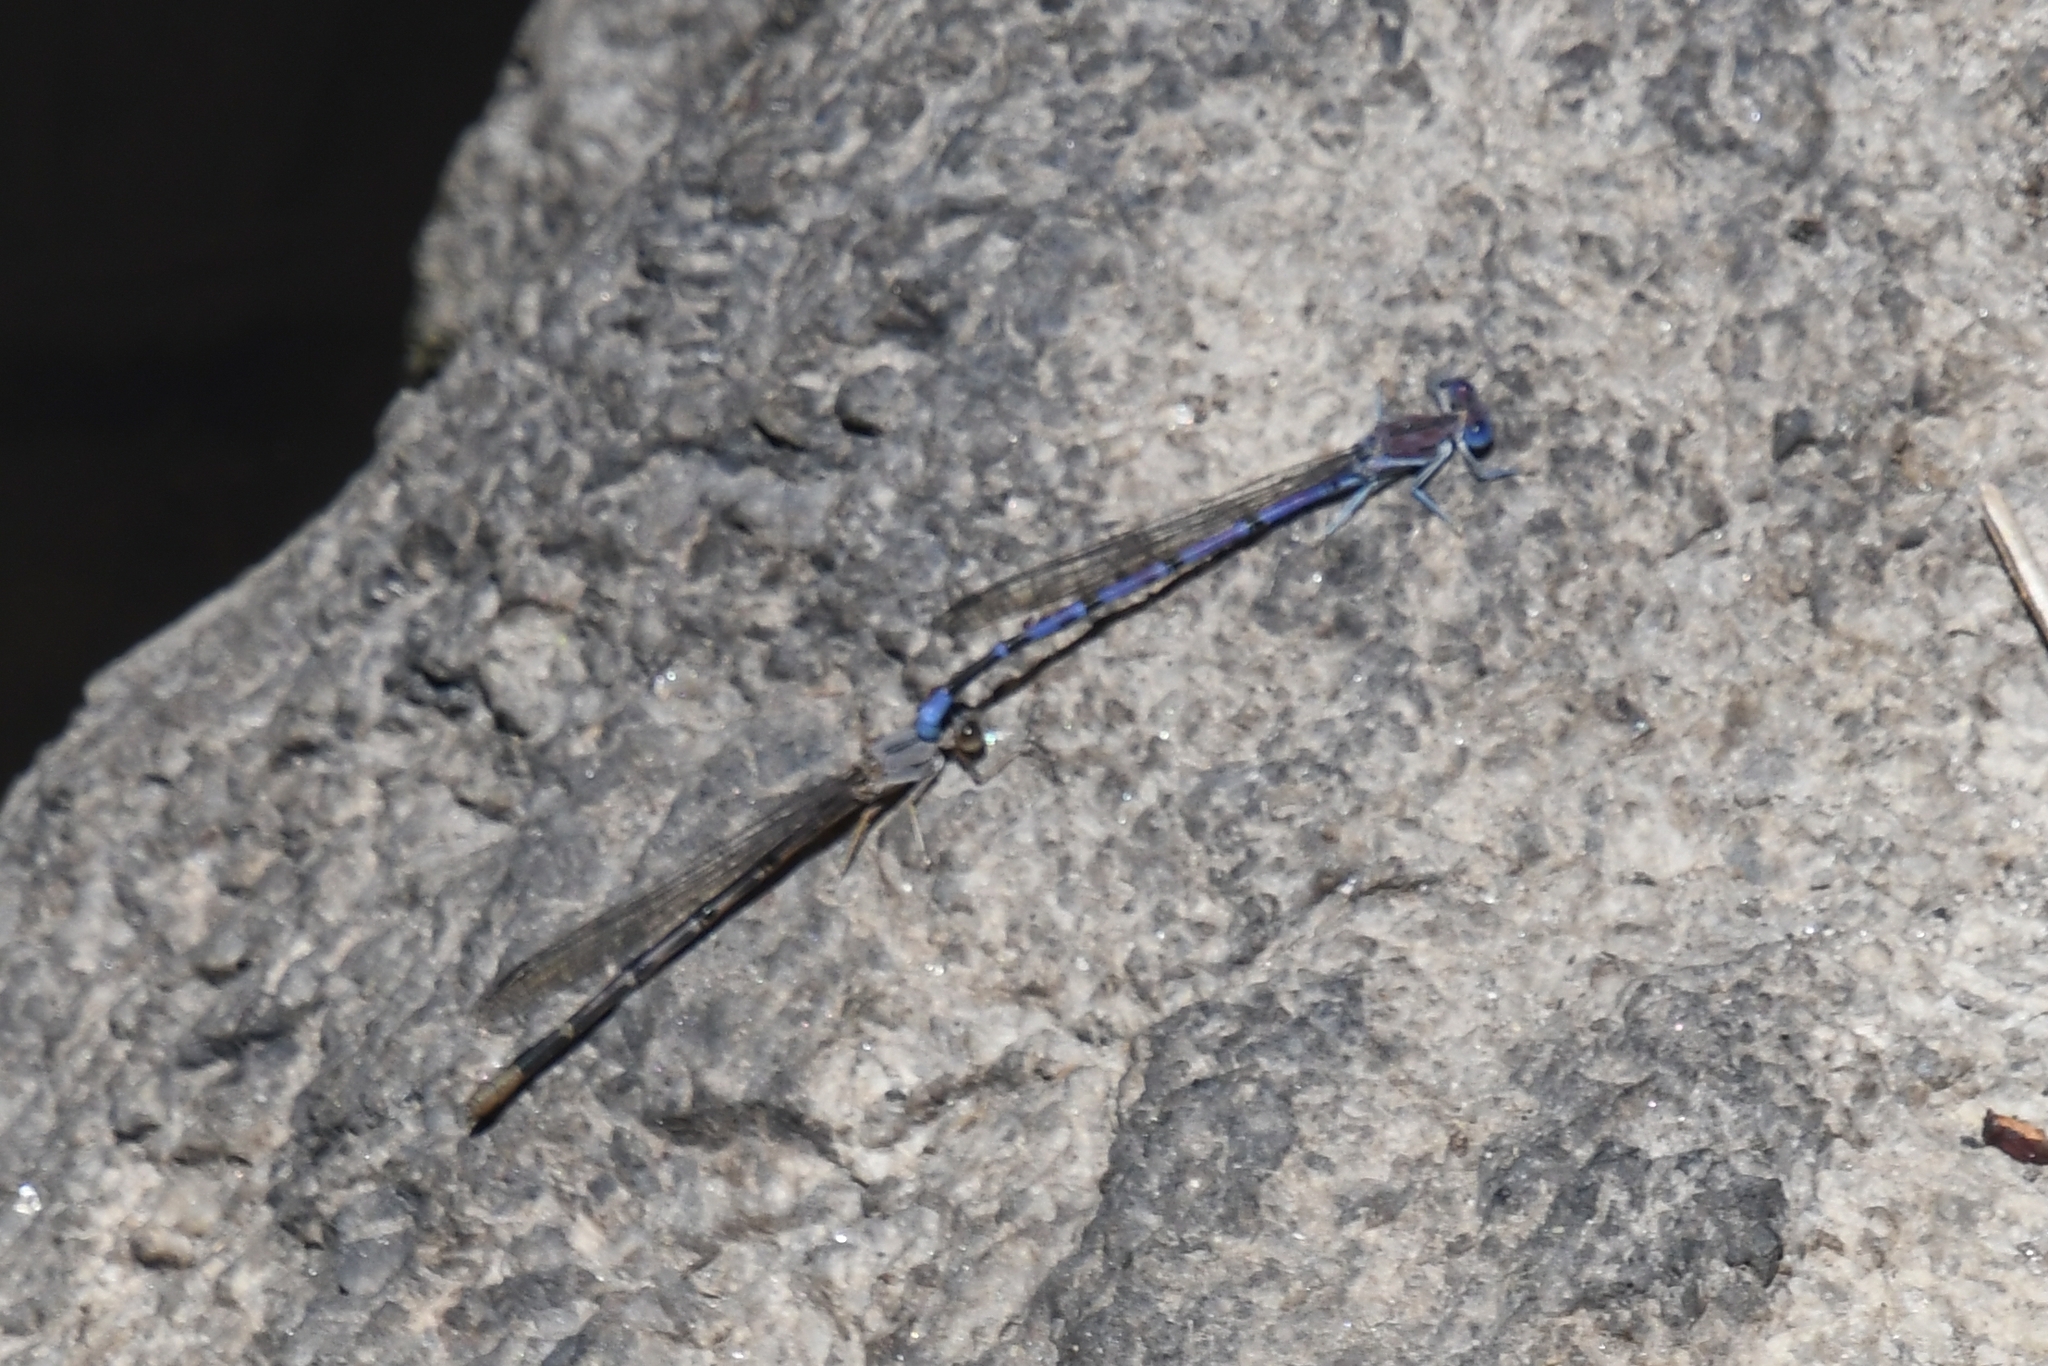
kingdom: Animalia
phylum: Arthropoda
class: Insecta
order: Odonata
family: Coenagrionidae
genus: Argia
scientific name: Argia munda
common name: Apache dancer
